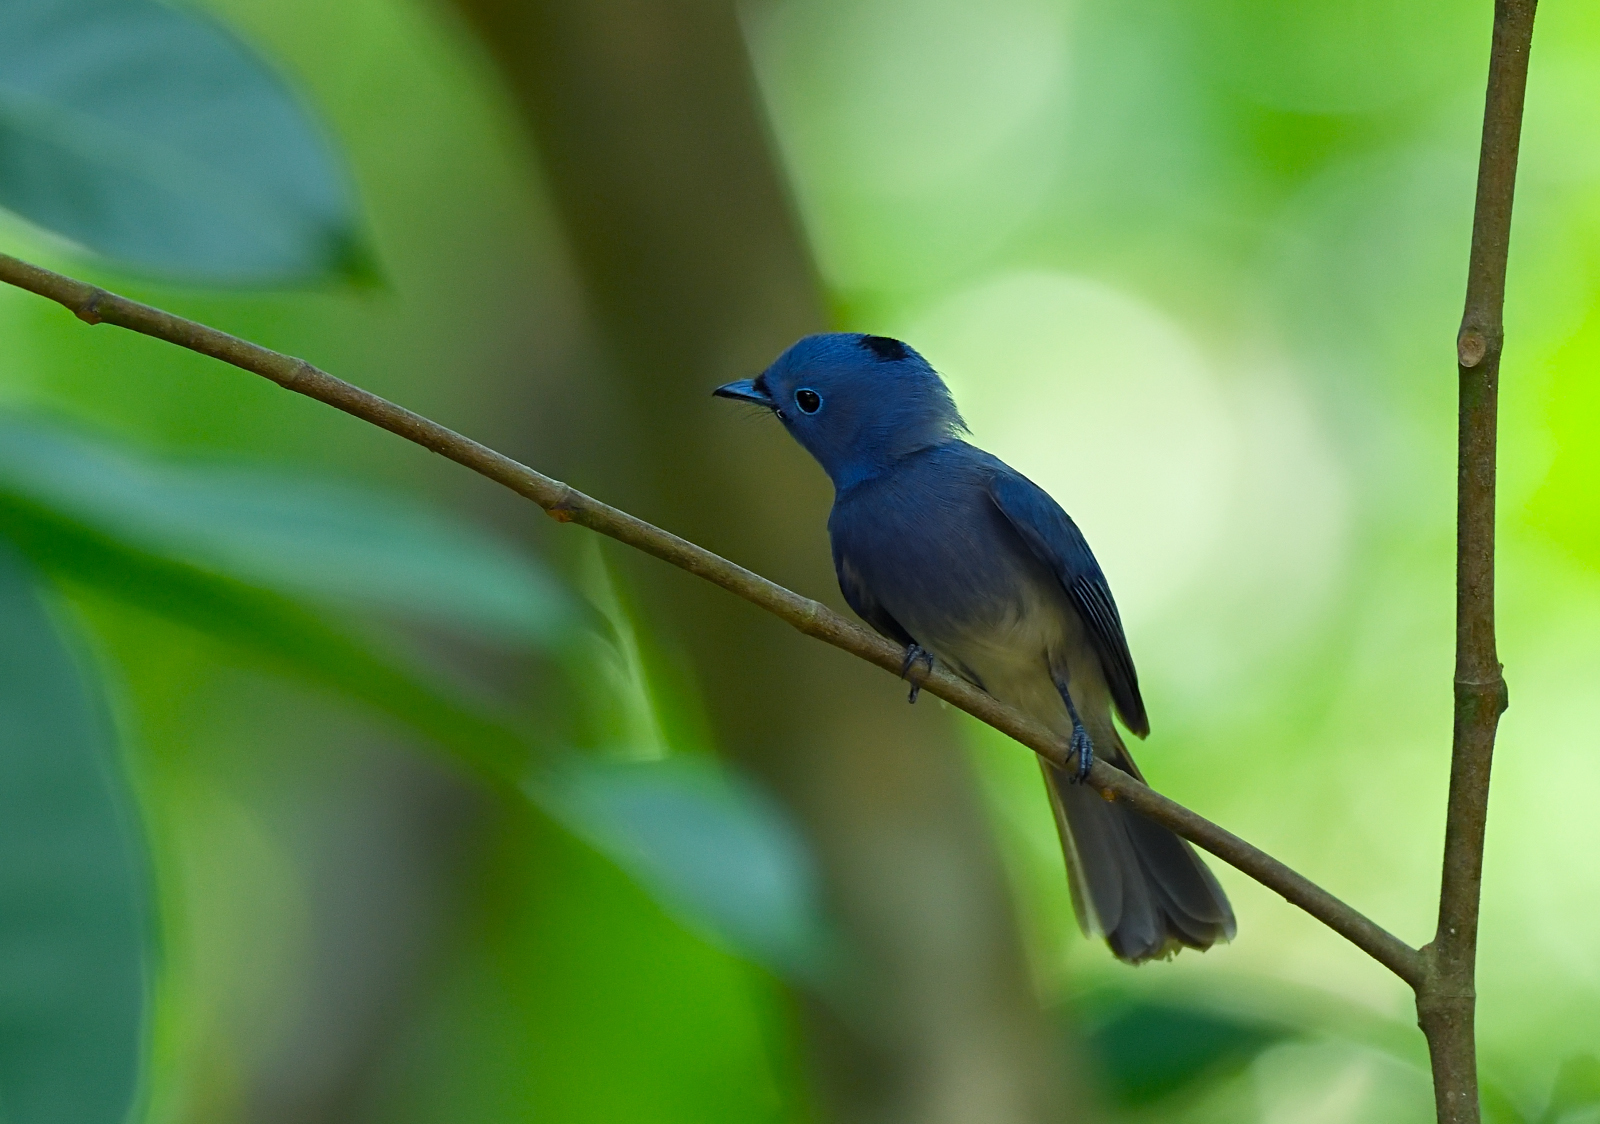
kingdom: Animalia
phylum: Chordata
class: Aves
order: Passeriformes
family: Monarchidae
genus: Hypothymis
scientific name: Hypothymis azurea
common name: Black-naped monarch
